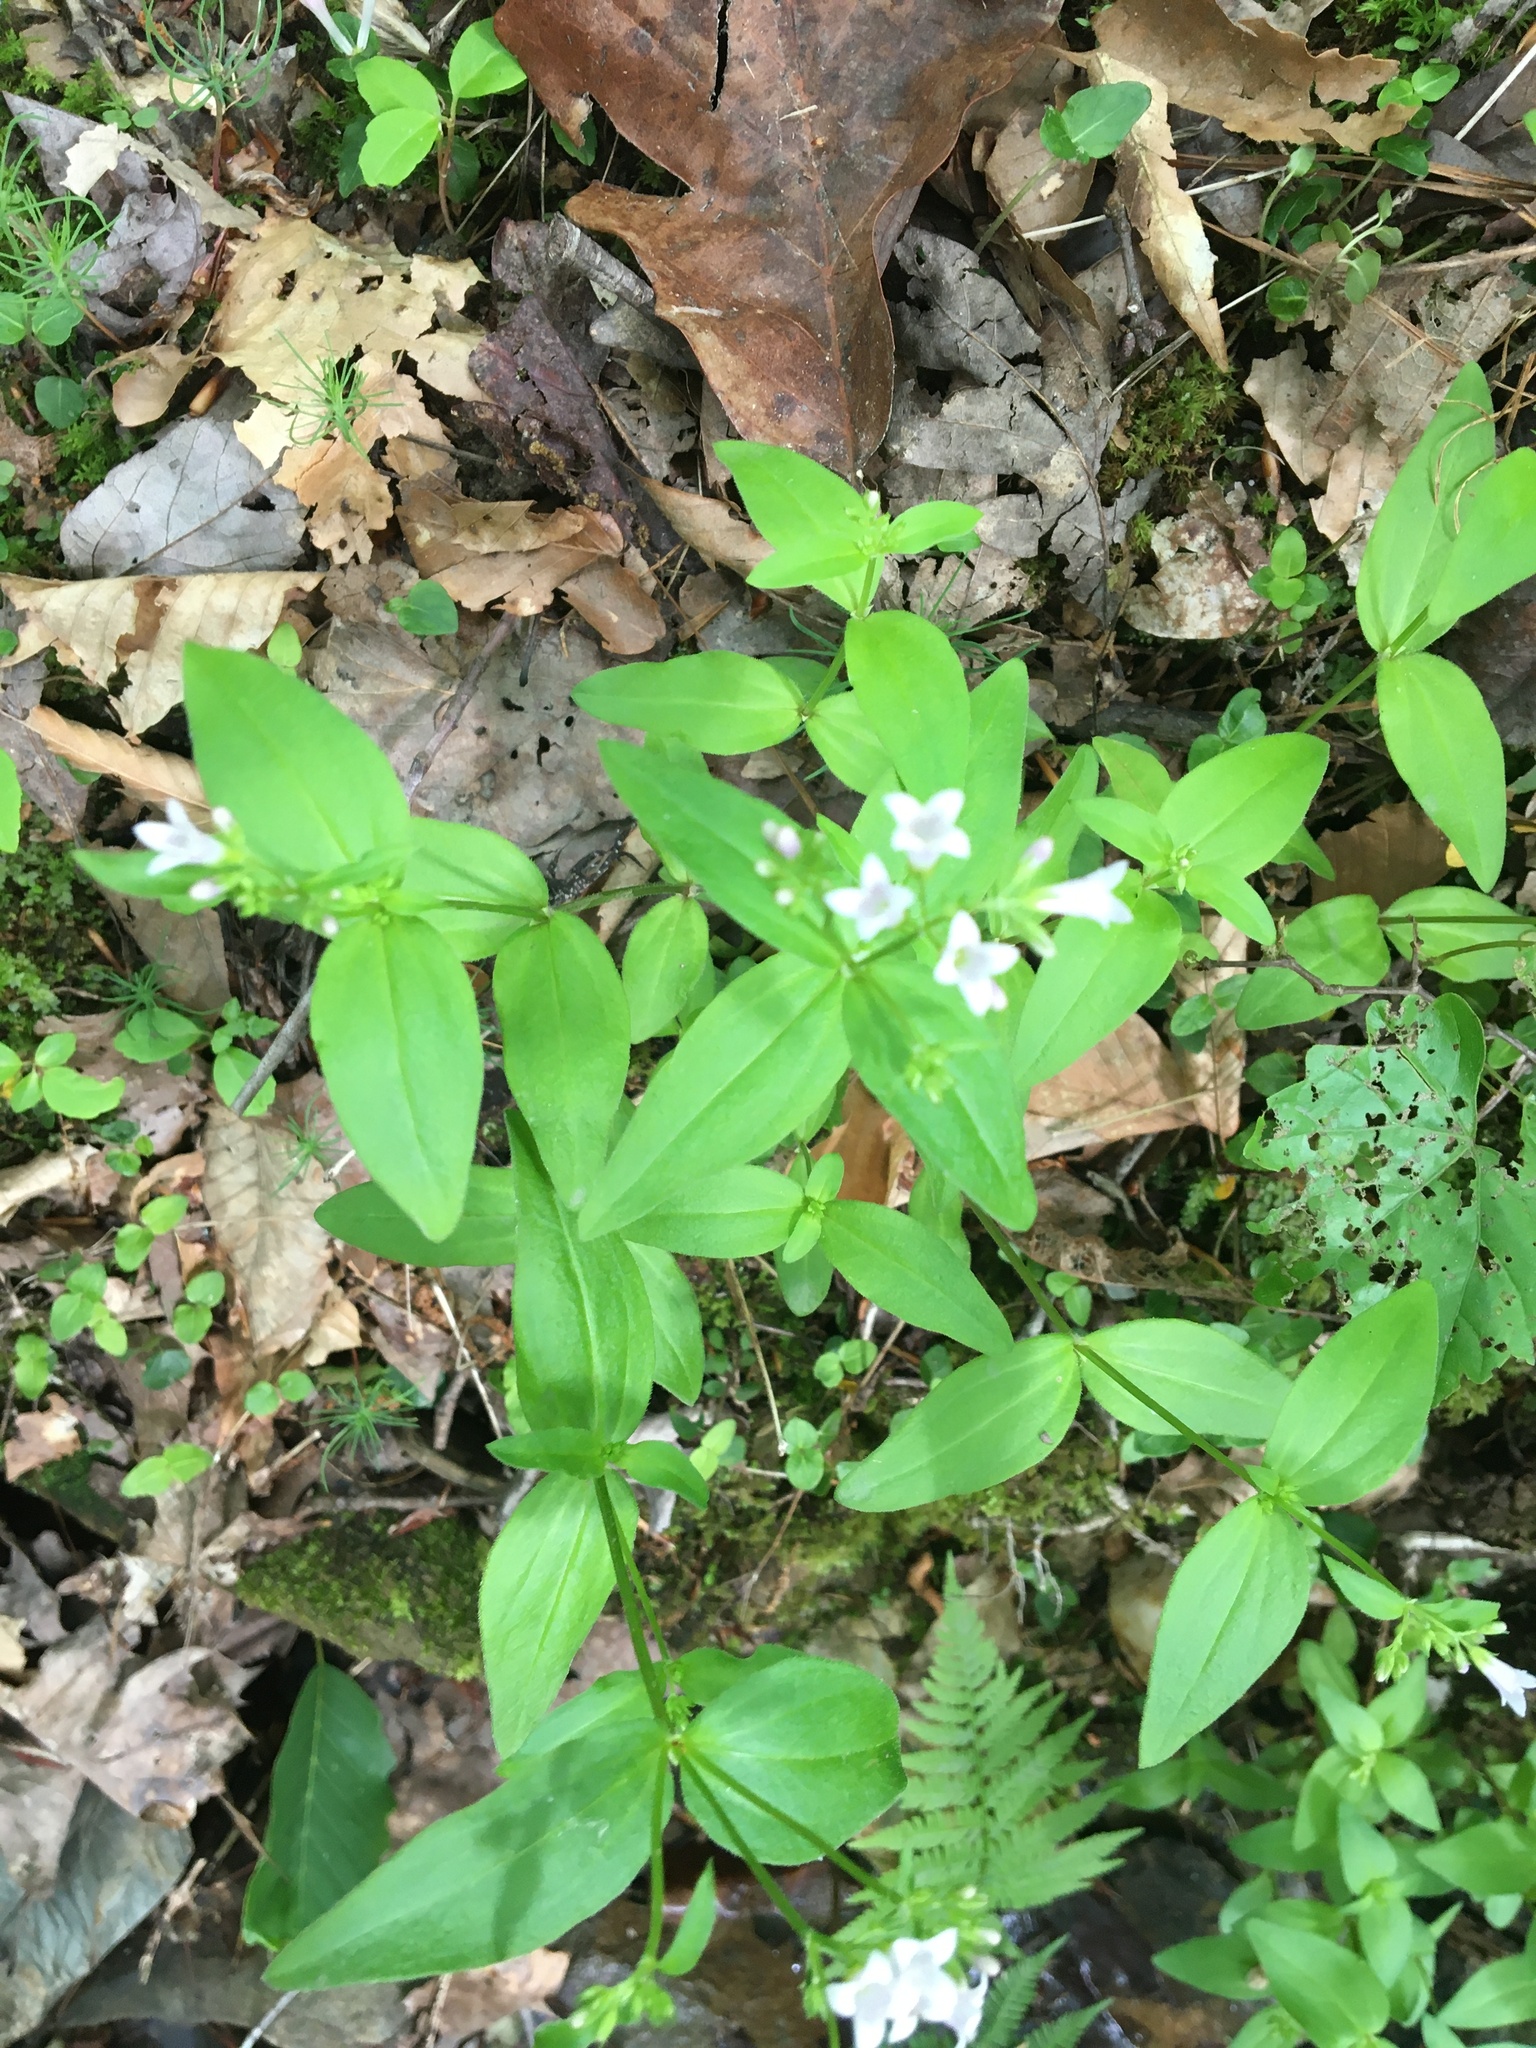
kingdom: Plantae
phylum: Tracheophyta
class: Magnoliopsida
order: Gentianales
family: Rubiaceae
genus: Houstonia
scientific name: Houstonia purpurea
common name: Summer bluet
